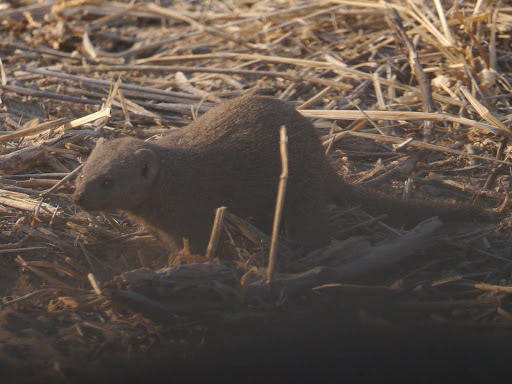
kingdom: Animalia
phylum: Chordata
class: Mammalia
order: Carnivora
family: Herpestidae
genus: Helogale
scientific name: Helogale parvula
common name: Common dwarf mongoose
